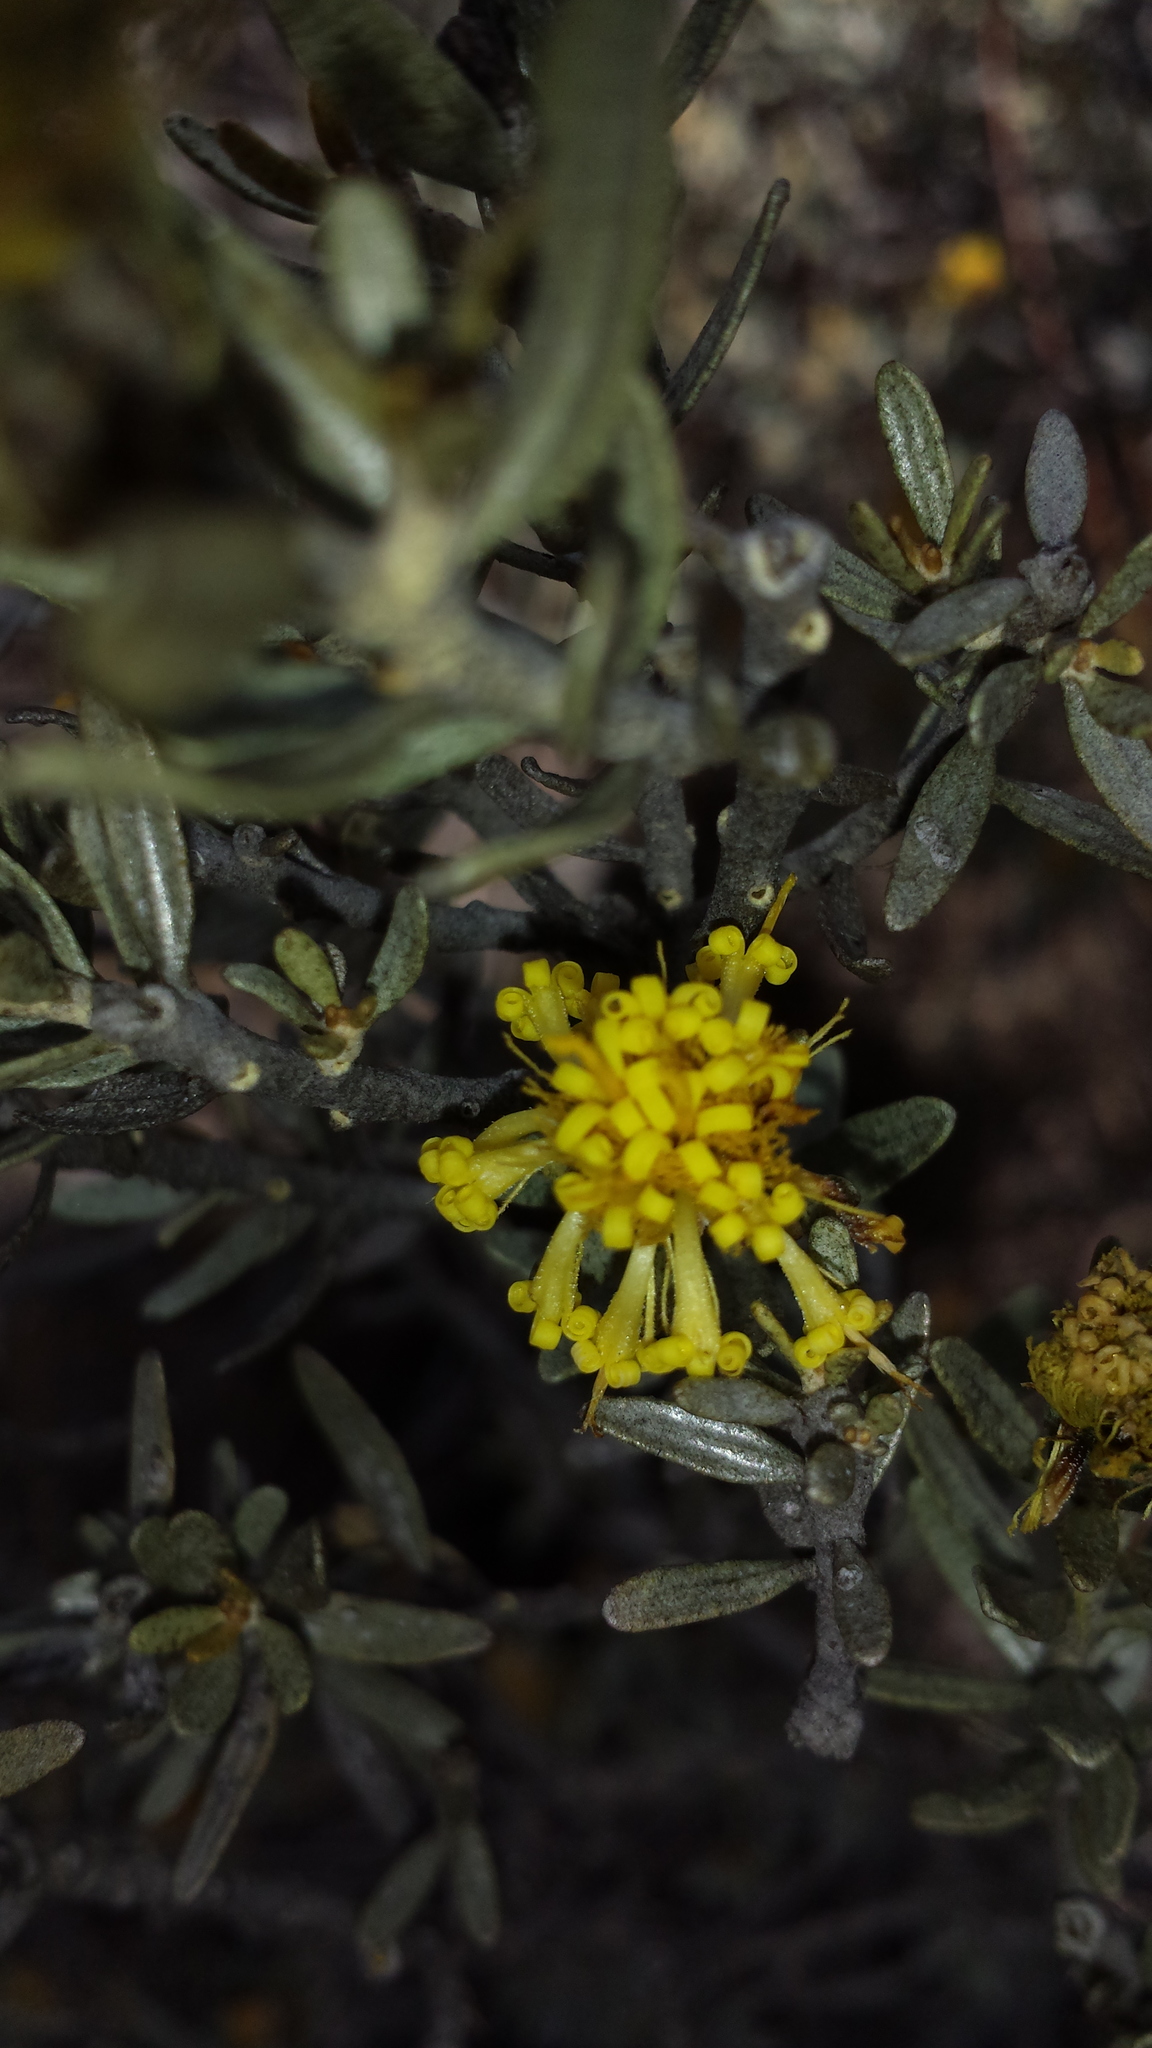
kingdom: Plantae
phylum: Tracheophyta
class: Magnoliopsida
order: Asterales
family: Asteraceae
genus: Distephanus
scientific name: Distephanus quartziticola
